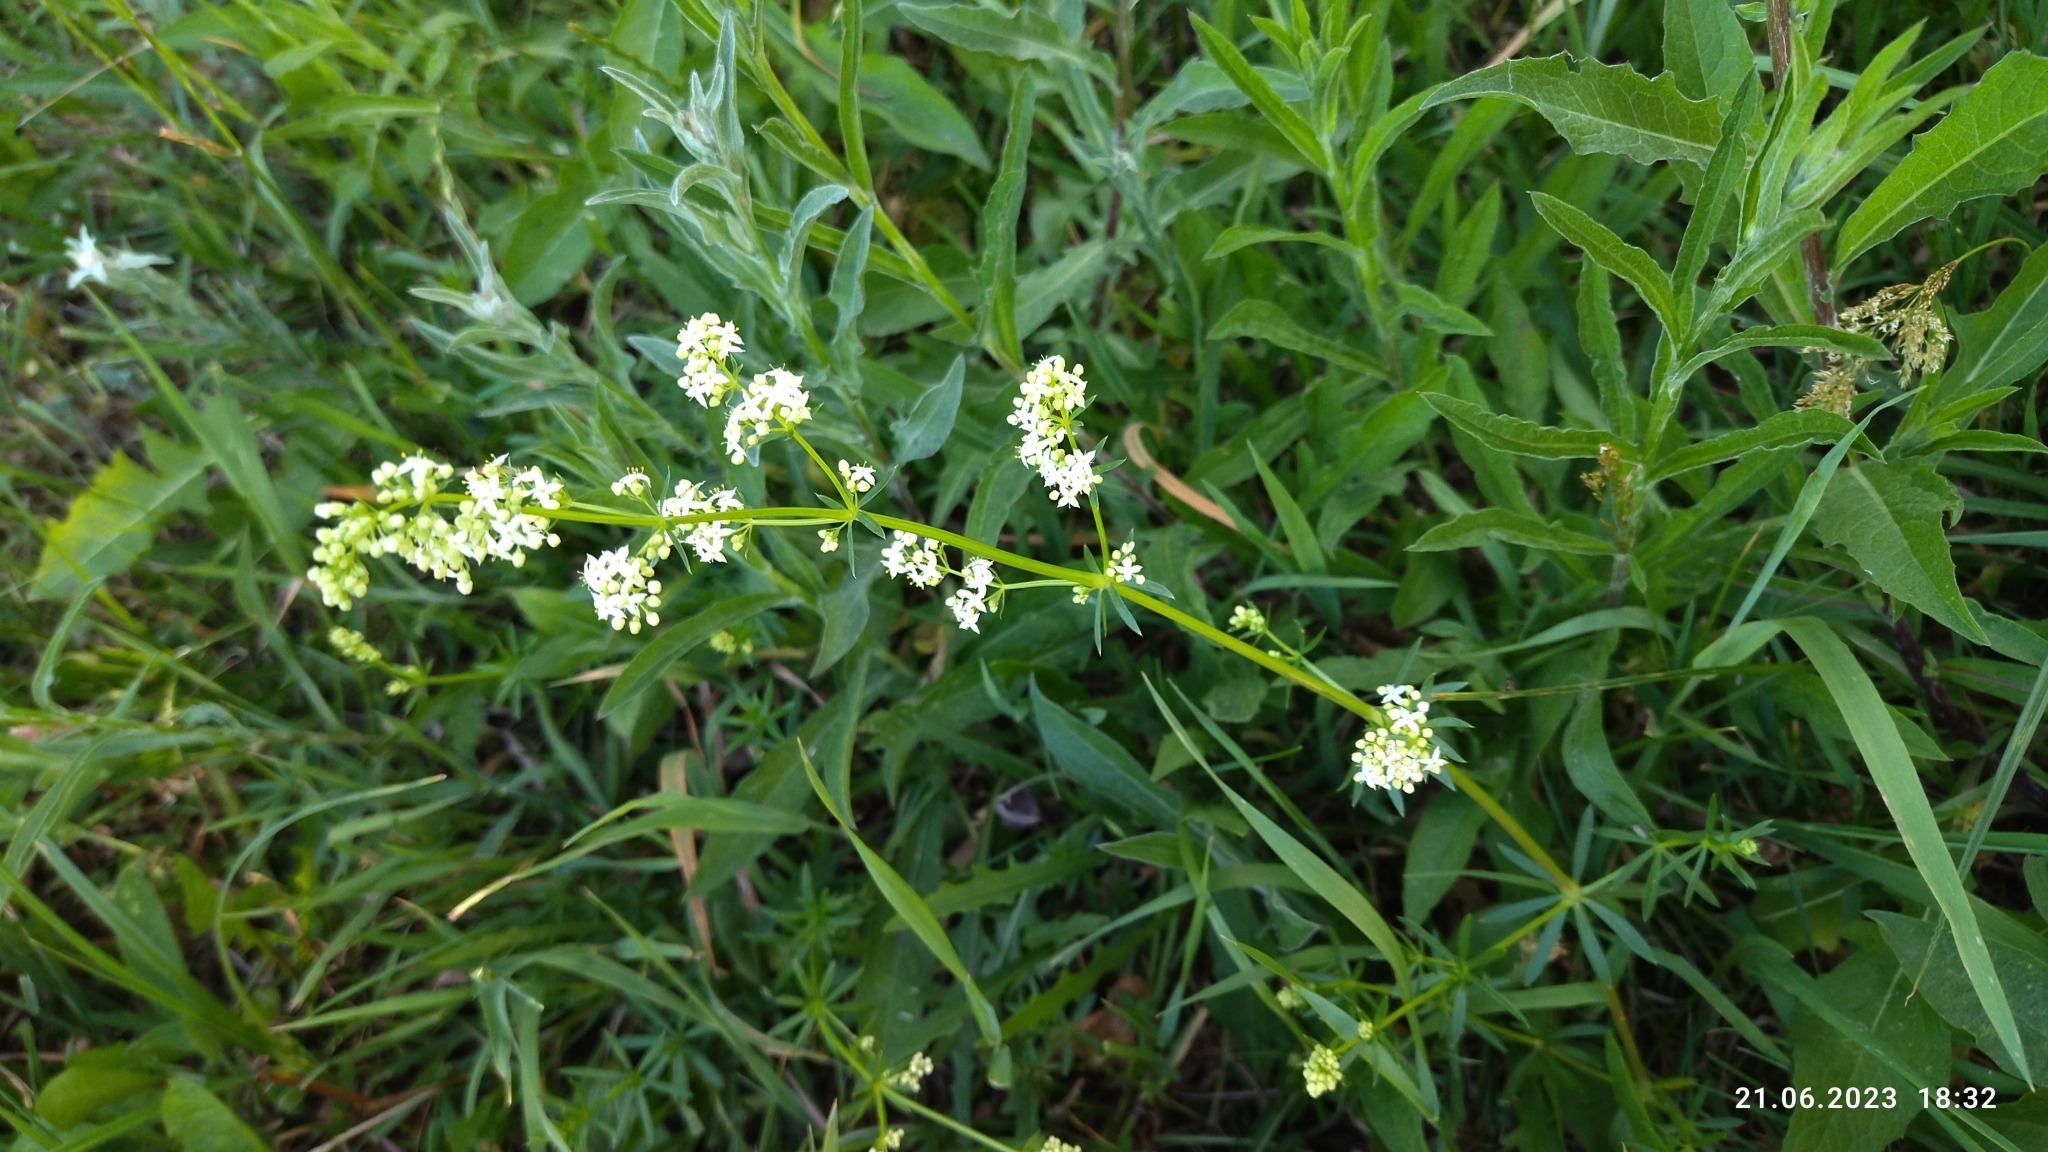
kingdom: Plantae
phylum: Tracheophyta
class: Magnoliopsida
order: Gentianales
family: Rubiaceae
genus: Galium
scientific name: Galium mollugo
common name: Hedge bedstraw
